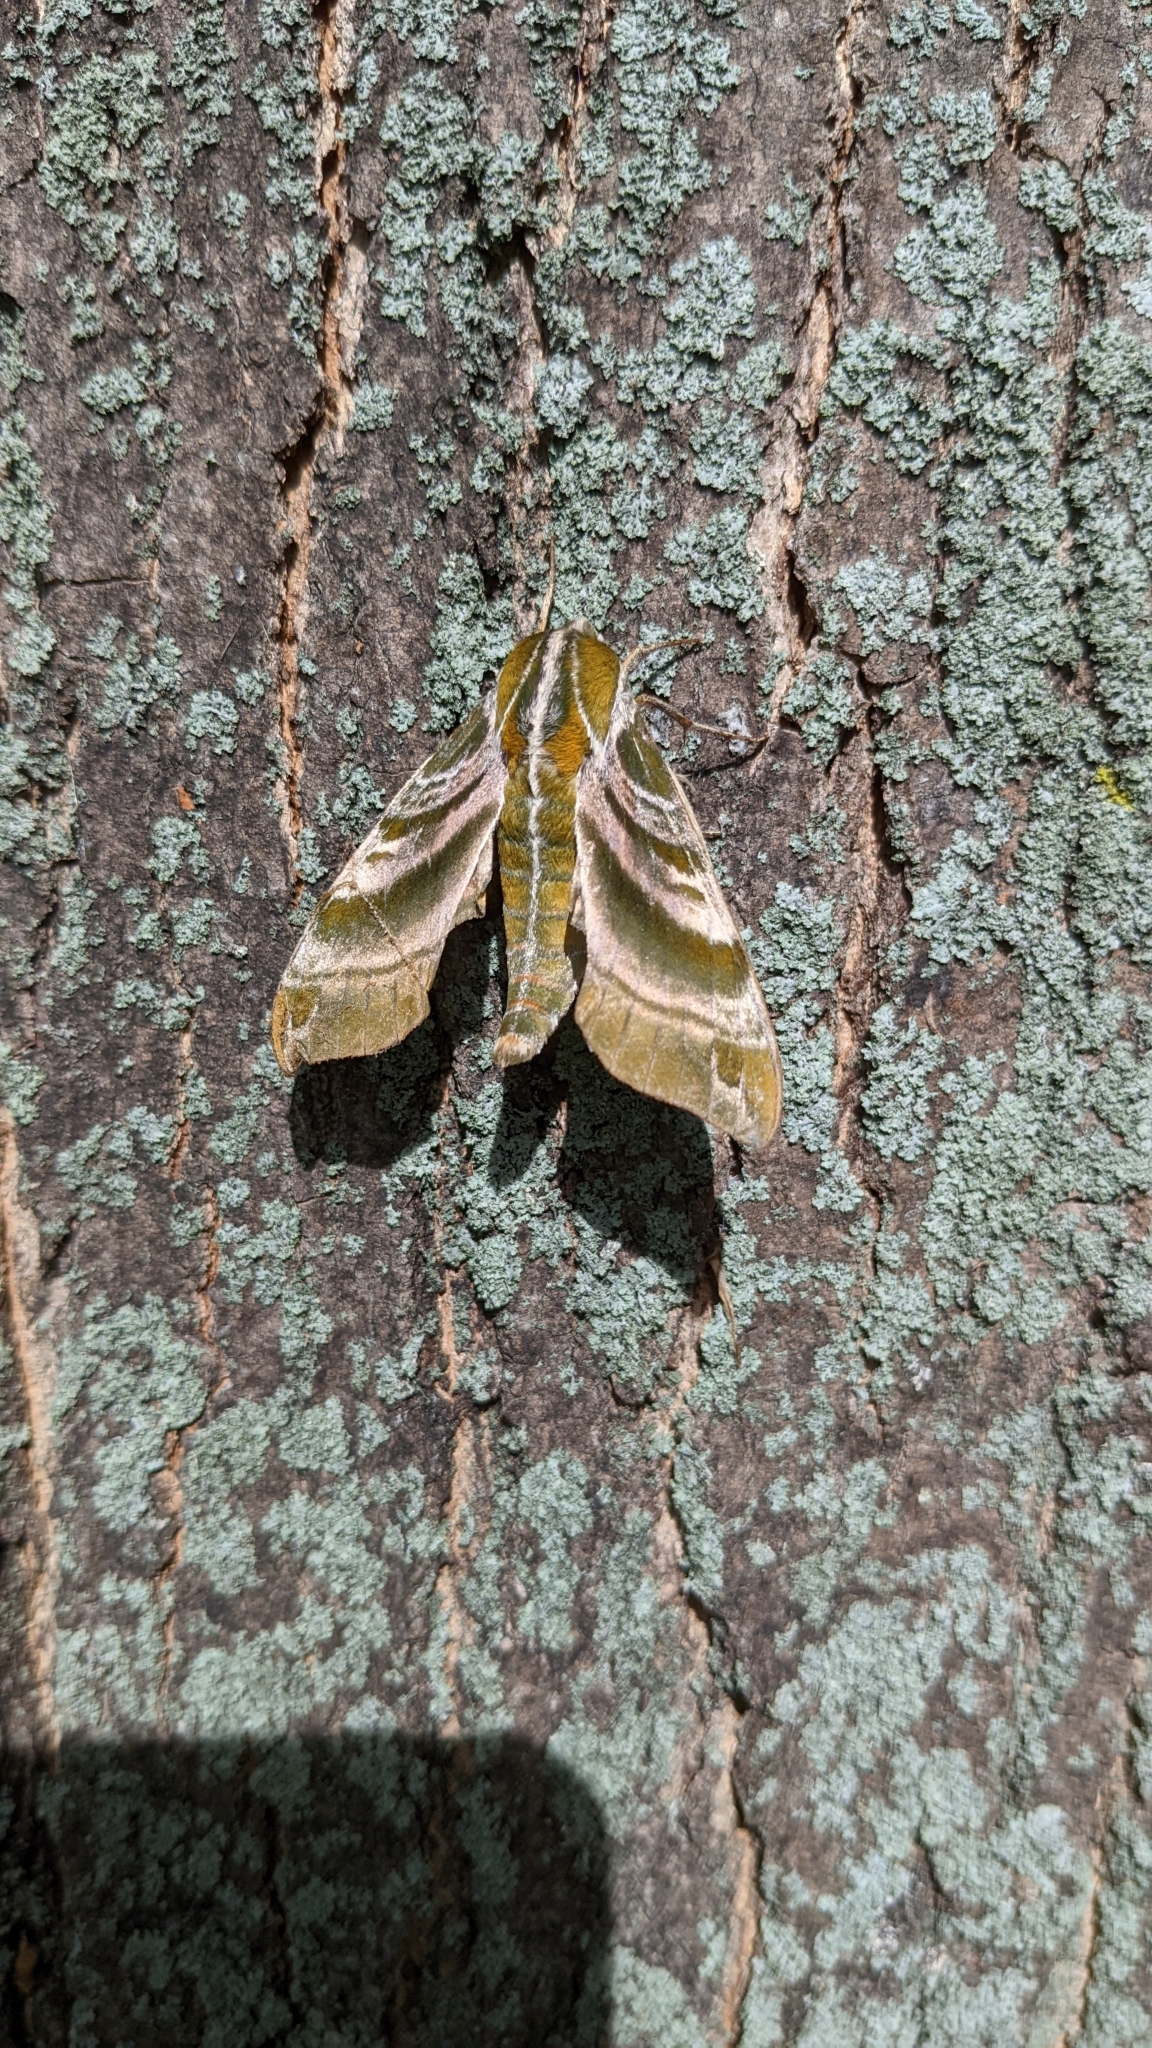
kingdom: Animalia
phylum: Arthropoda
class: Insecta
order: Lepidoptera
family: Sphingidae
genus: Darapsa
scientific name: Darapsa versicolor
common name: Hydrangea sphinx
